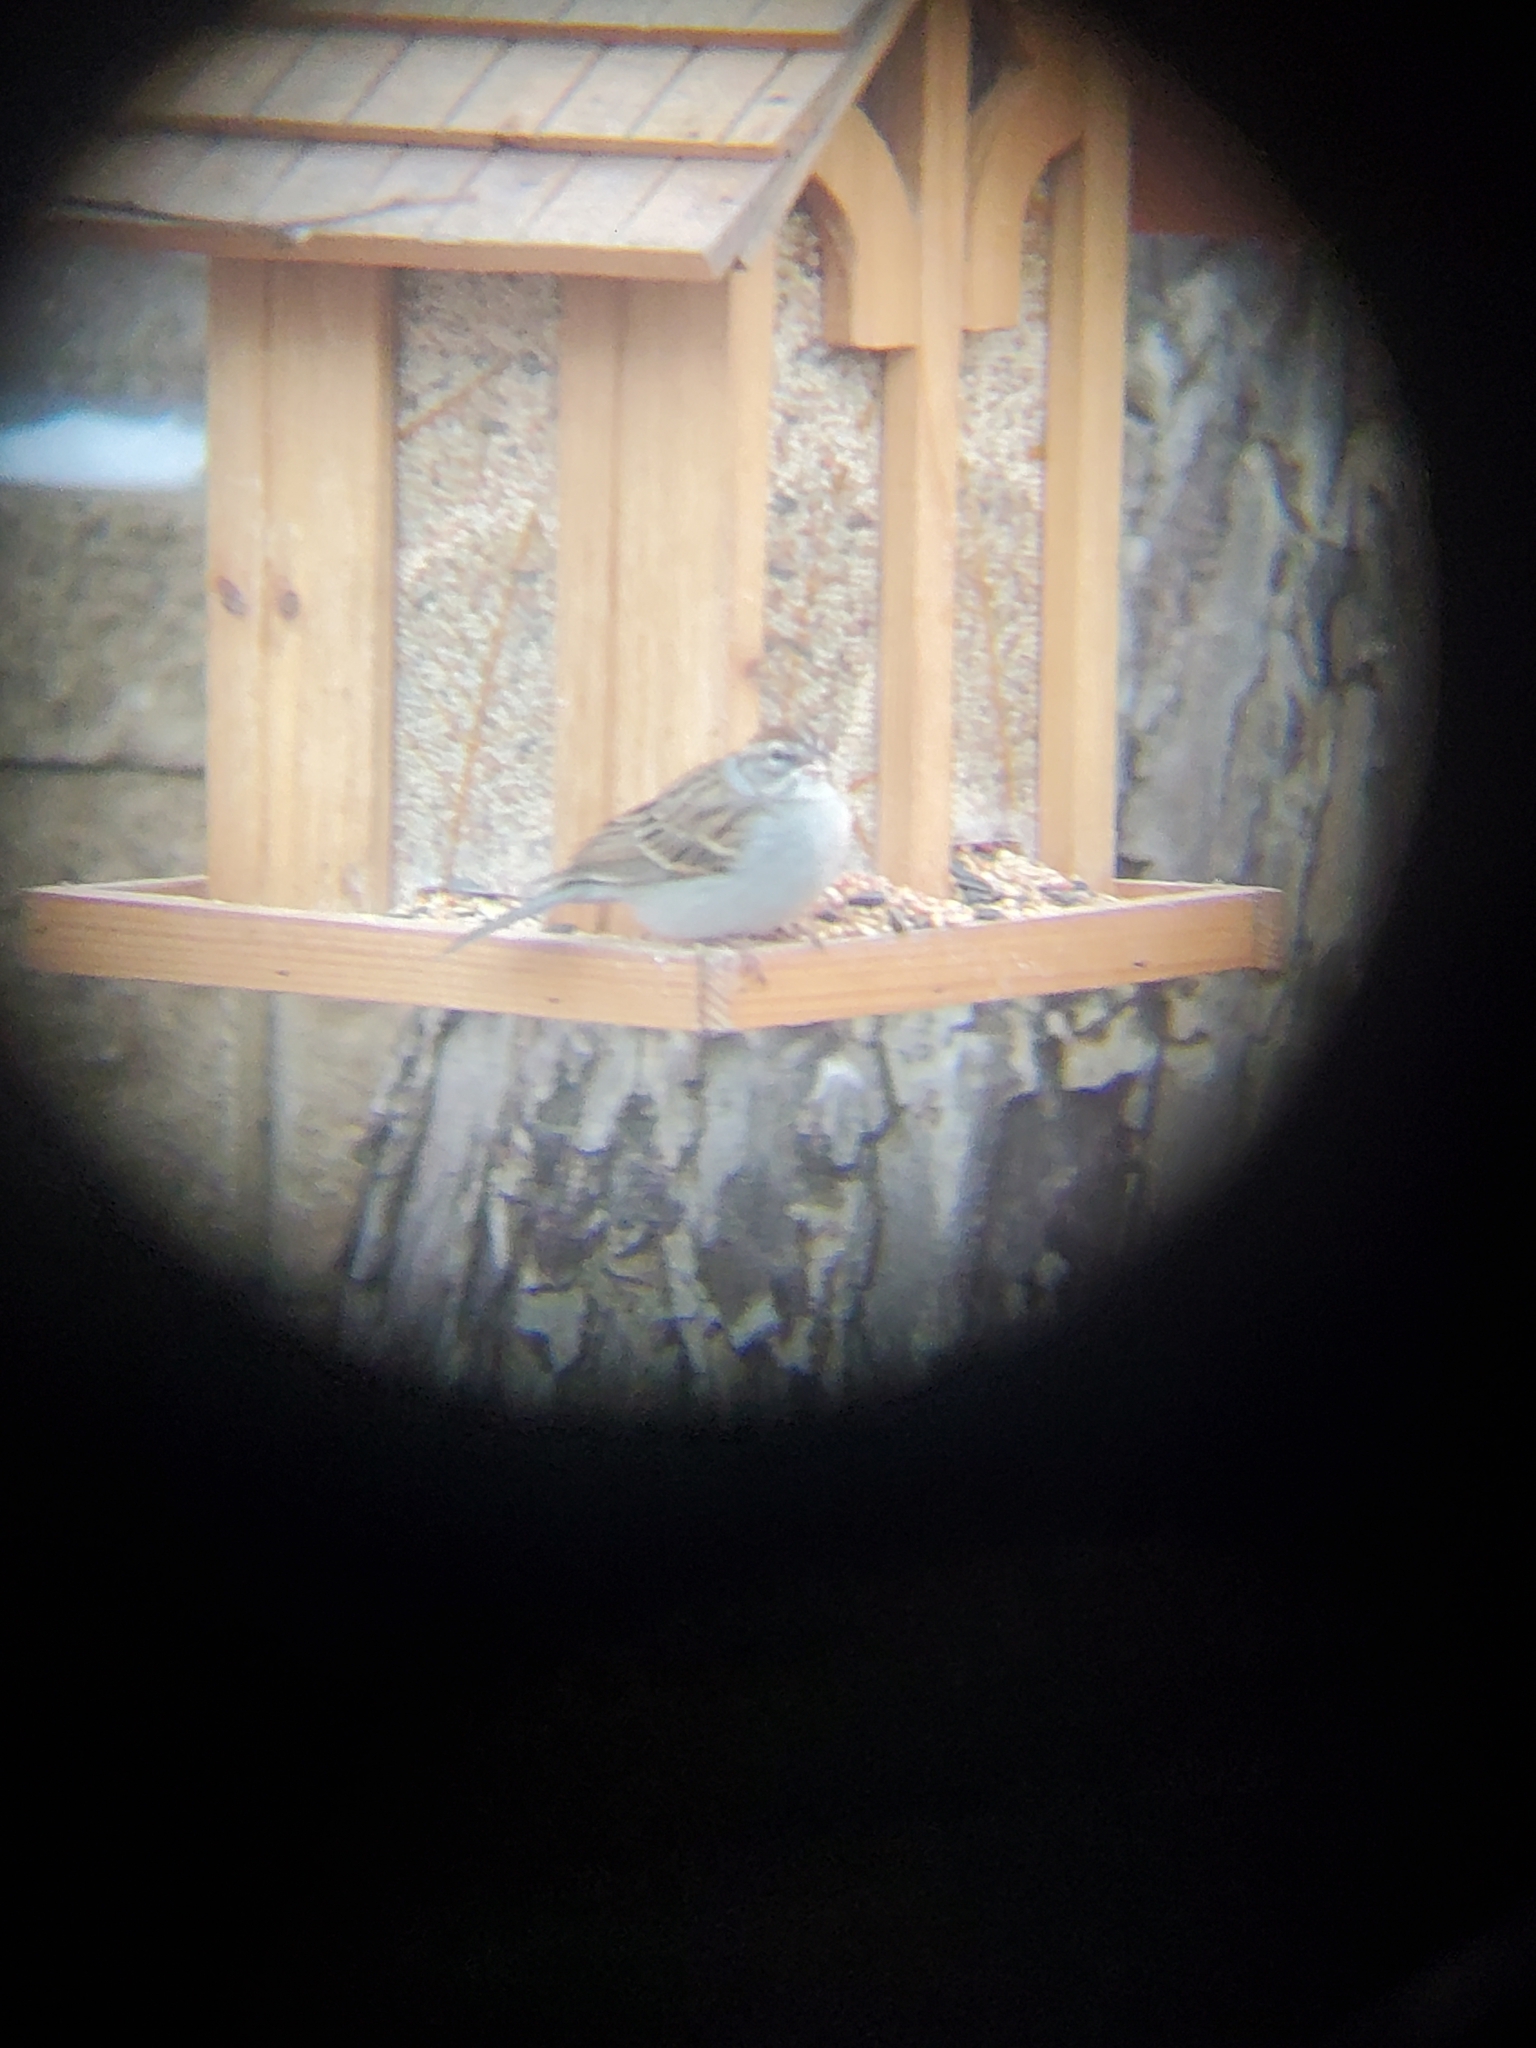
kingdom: Animalia
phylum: Chordata
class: Aves
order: Passeriformes
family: Passerellidae
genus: Spizella
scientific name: Spizella passerina
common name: Chipping sparrow
